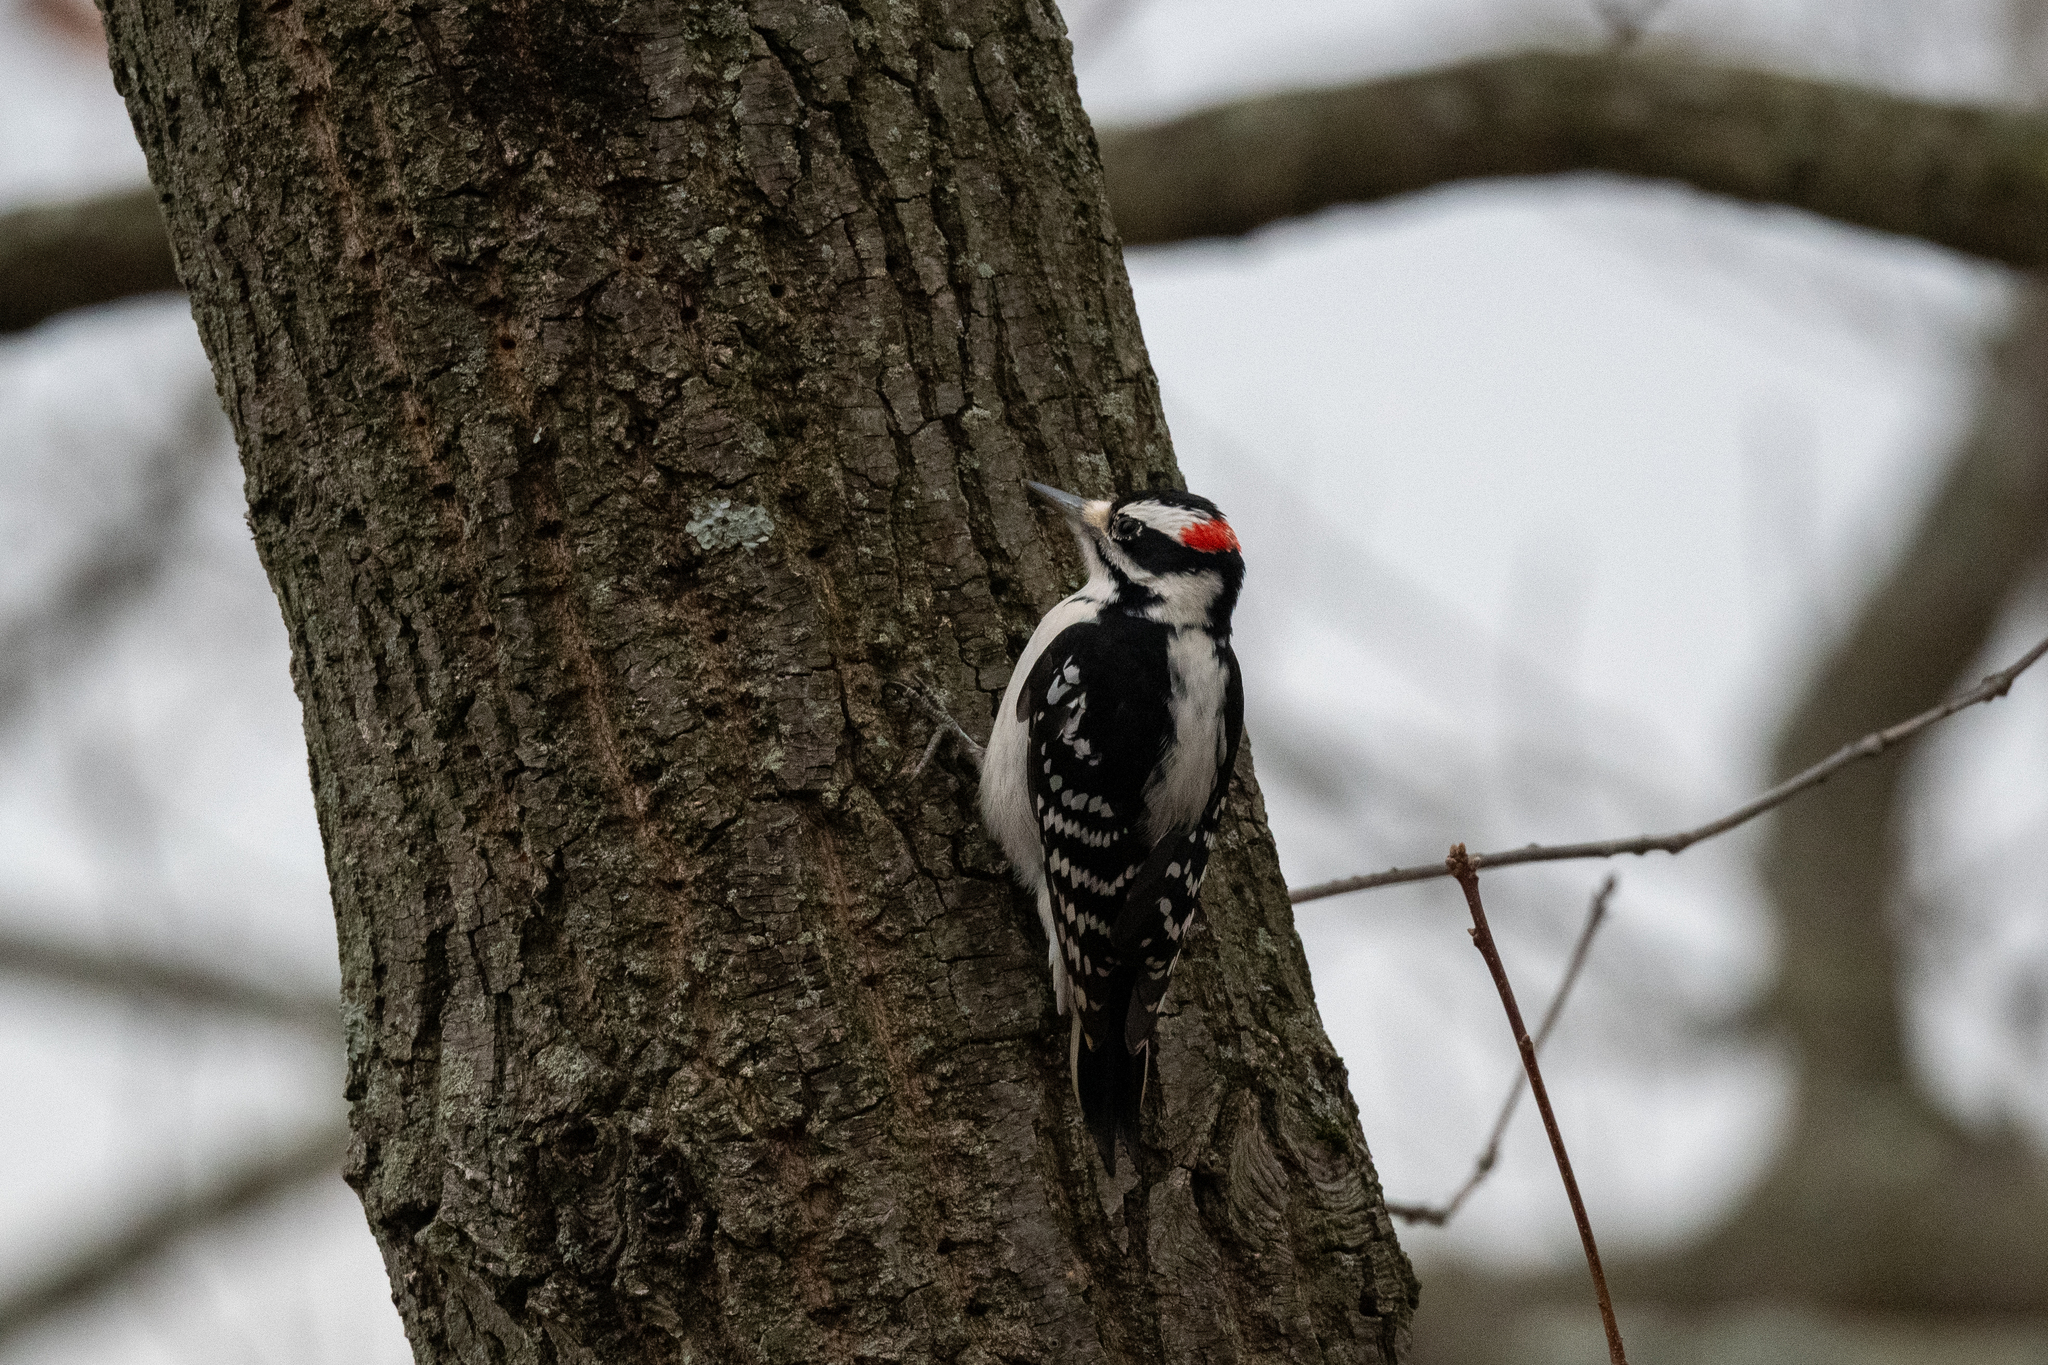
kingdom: Animalia
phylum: Chordata
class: Aves
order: Piciformes
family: Picidae
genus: Leuconotopicus
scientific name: Leuconotopicus villosus
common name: Hairy woodpecker
